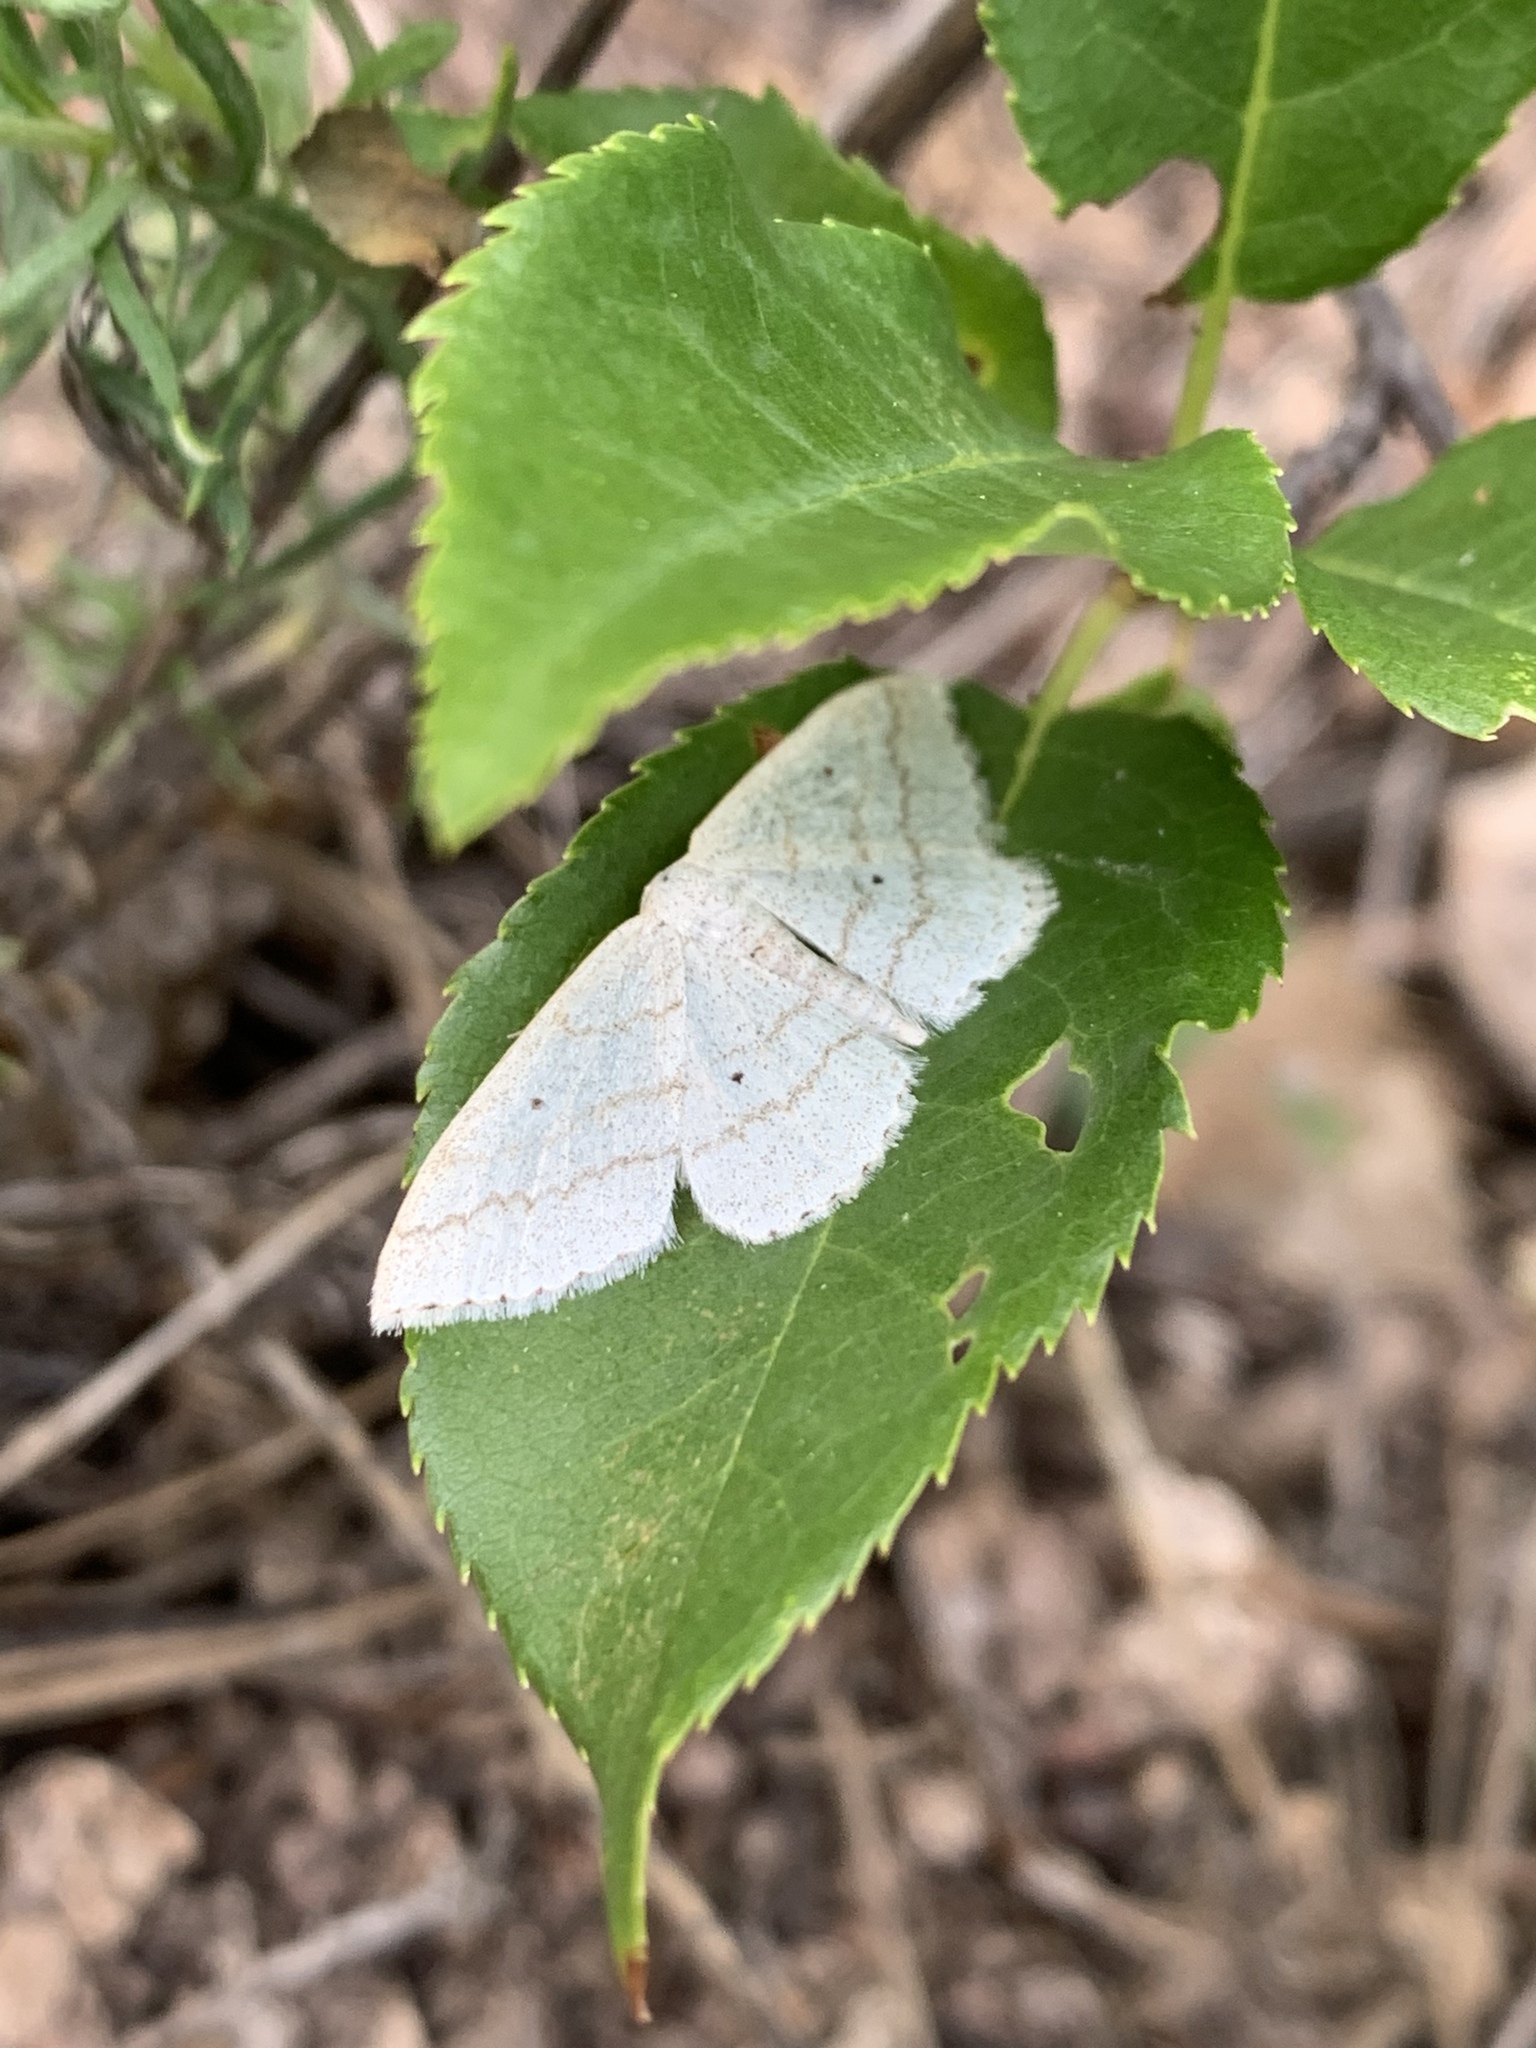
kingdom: Animalia
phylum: Arthropoda
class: Insecta
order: Lepidoptera
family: Geometridae
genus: Scopula
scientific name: Scopula ancellata
